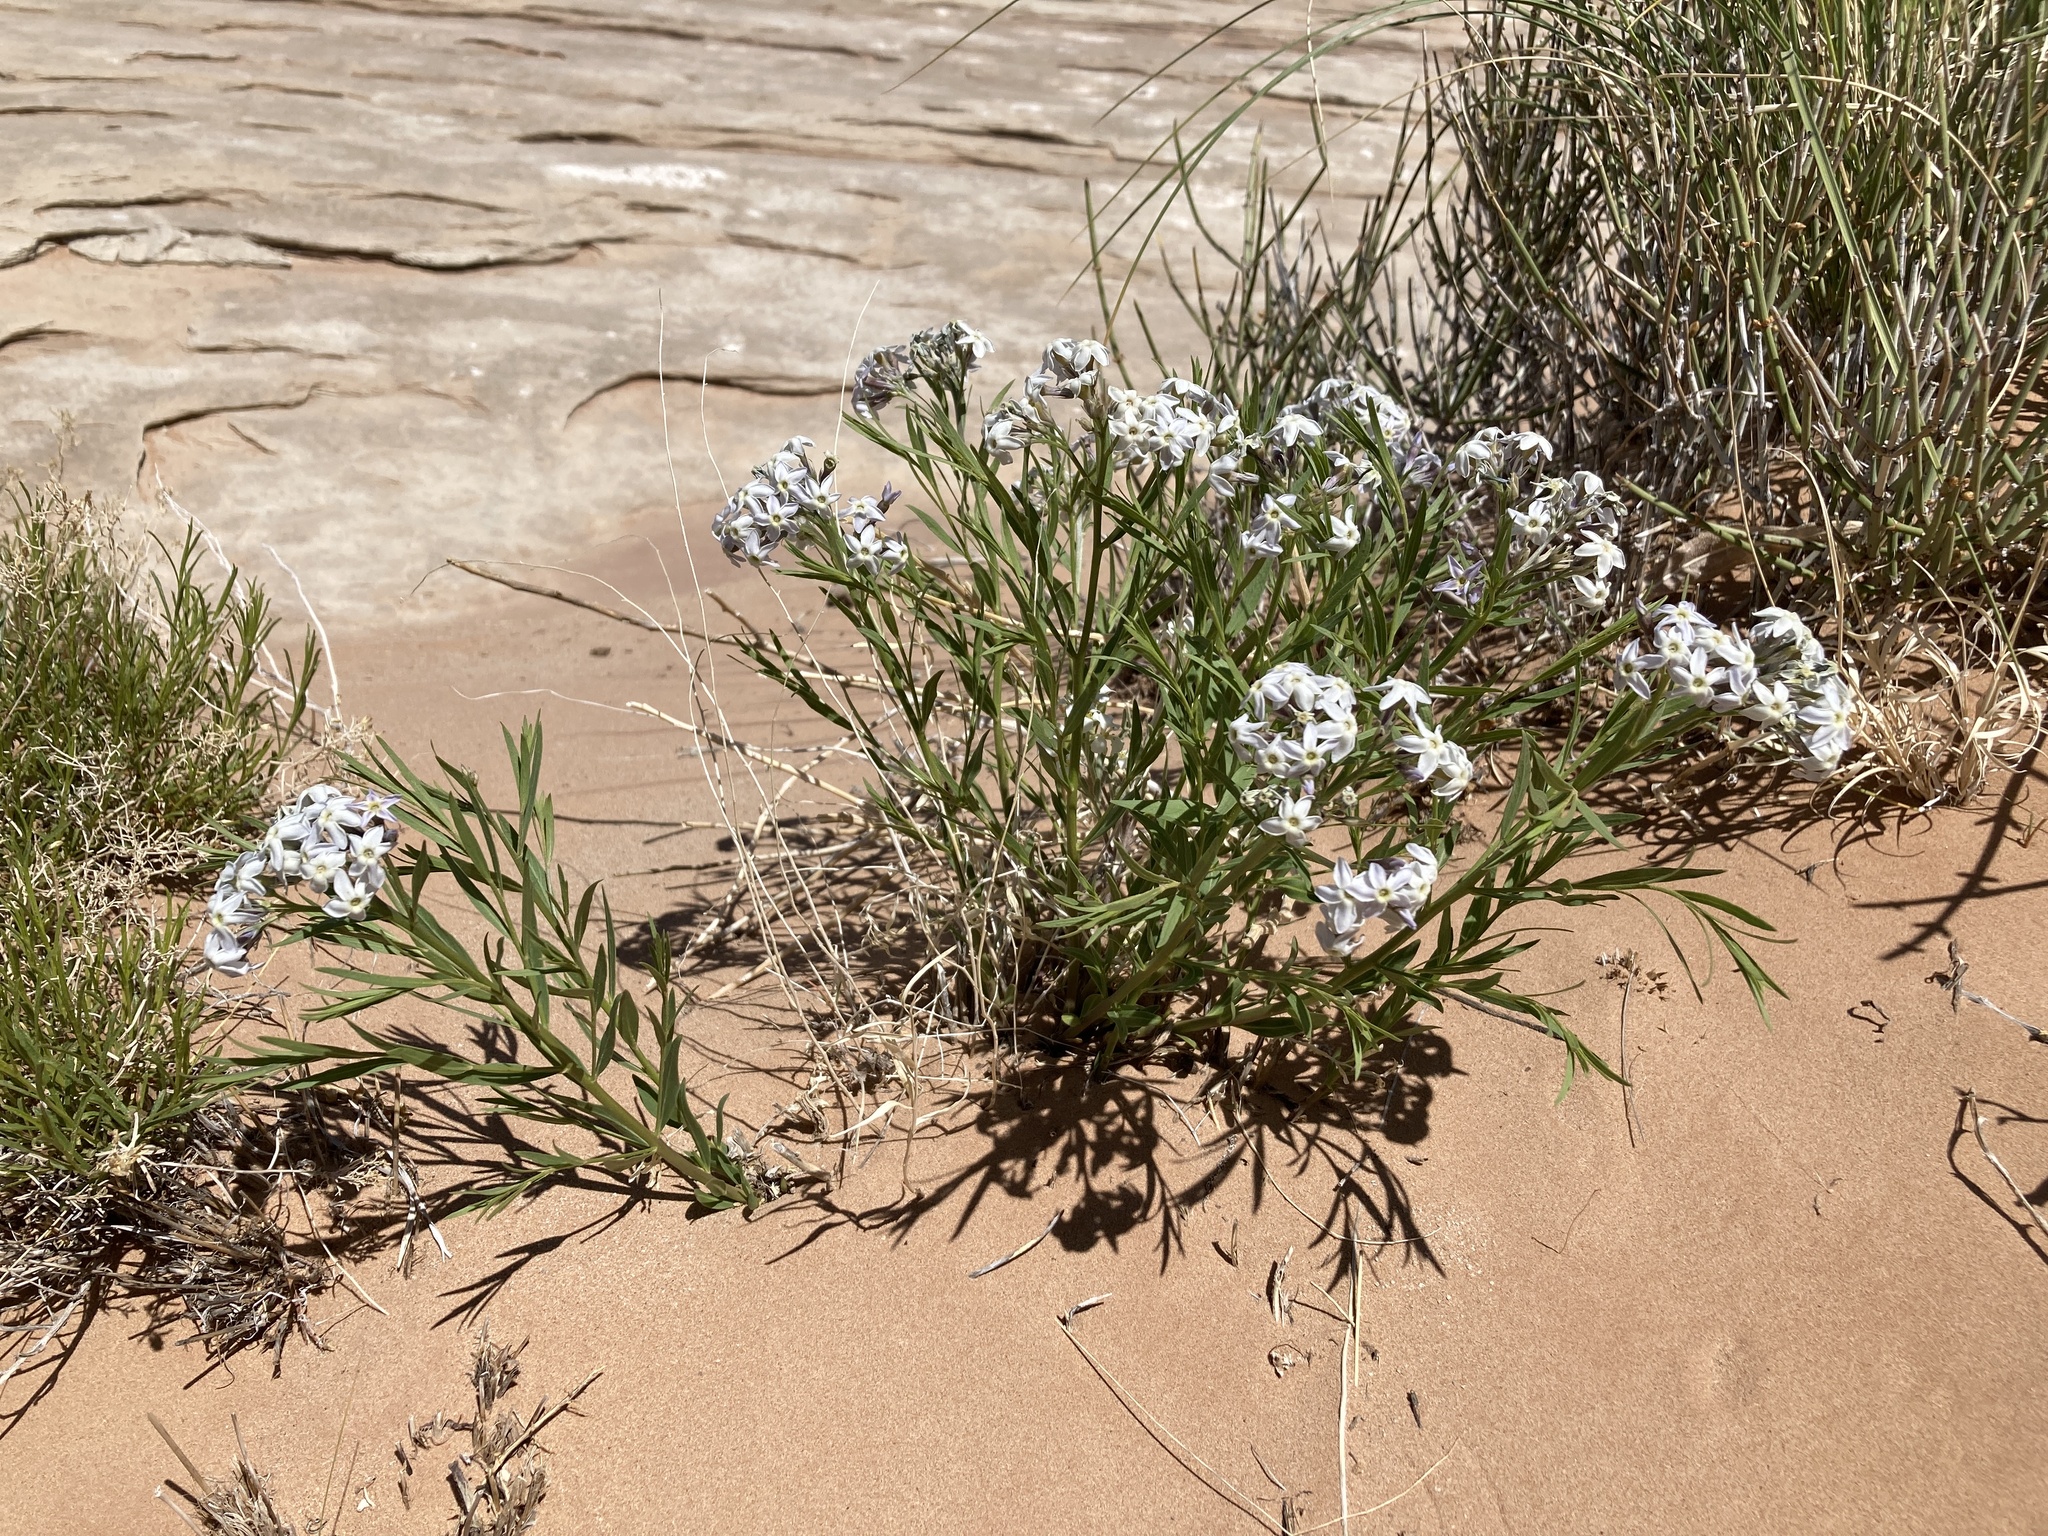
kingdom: Plantae
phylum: Tracheophyta
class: Magnoliopsida
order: Gentianales
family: Apocynaceae
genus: Amsonia
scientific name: Amsonia tomentosa
